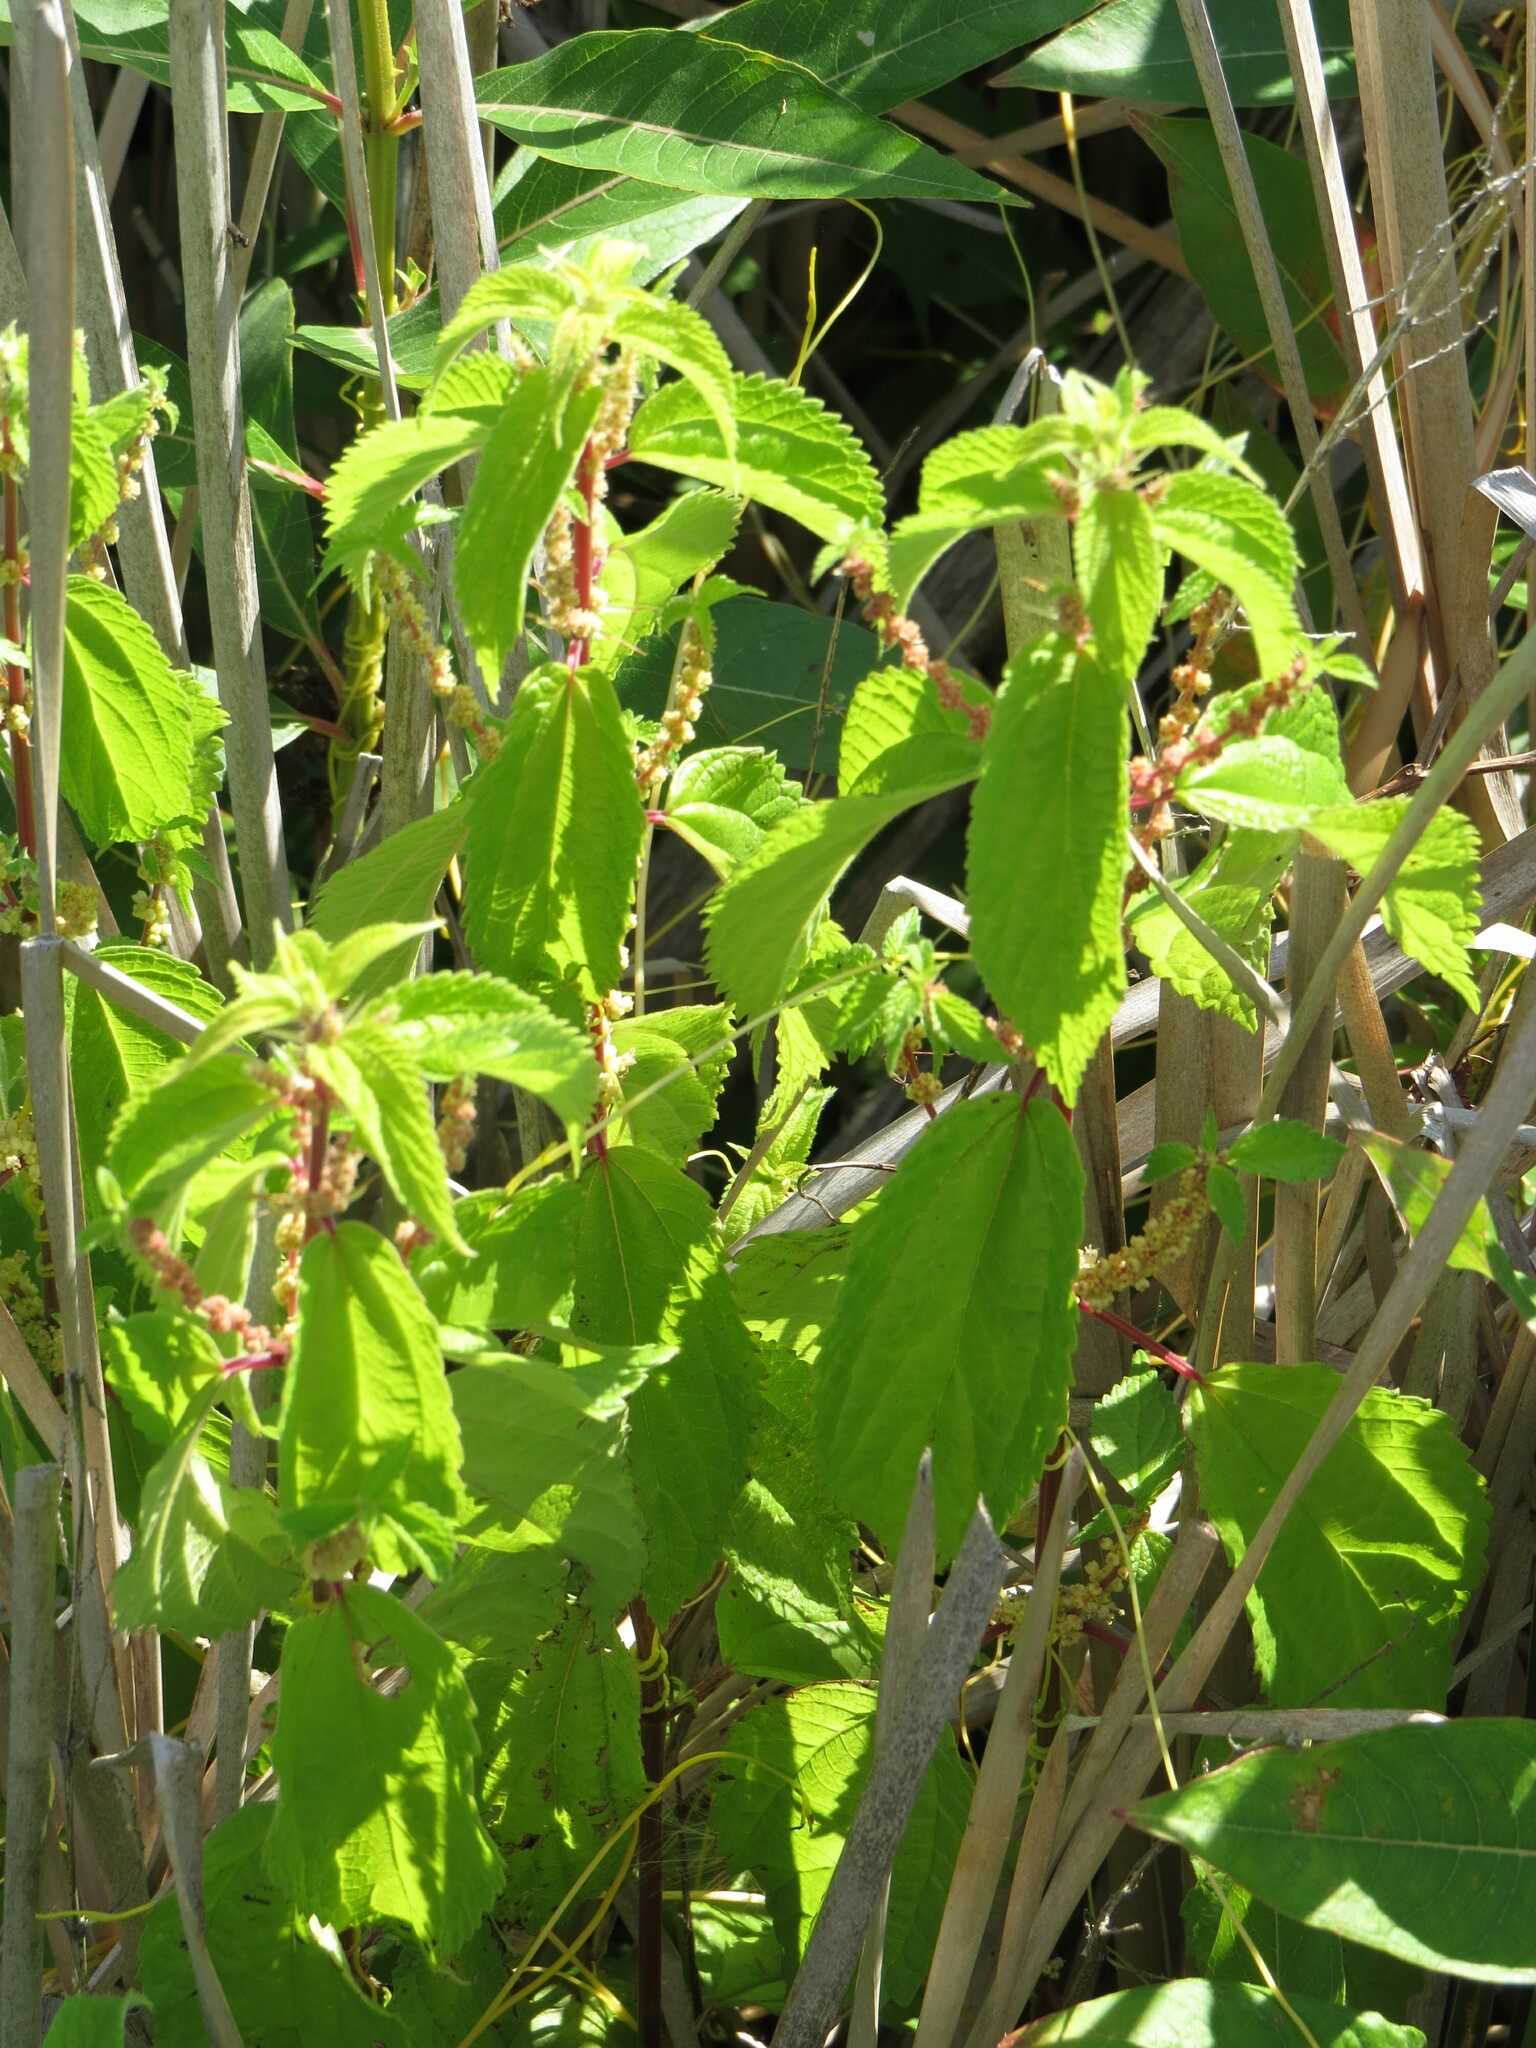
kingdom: Plantae
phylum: Tracheophyta
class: Magnoliopsida
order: Rosales
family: Urticaceae
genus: Boehmeria
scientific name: Boehmeria cylindrica
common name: Bog-hemp
